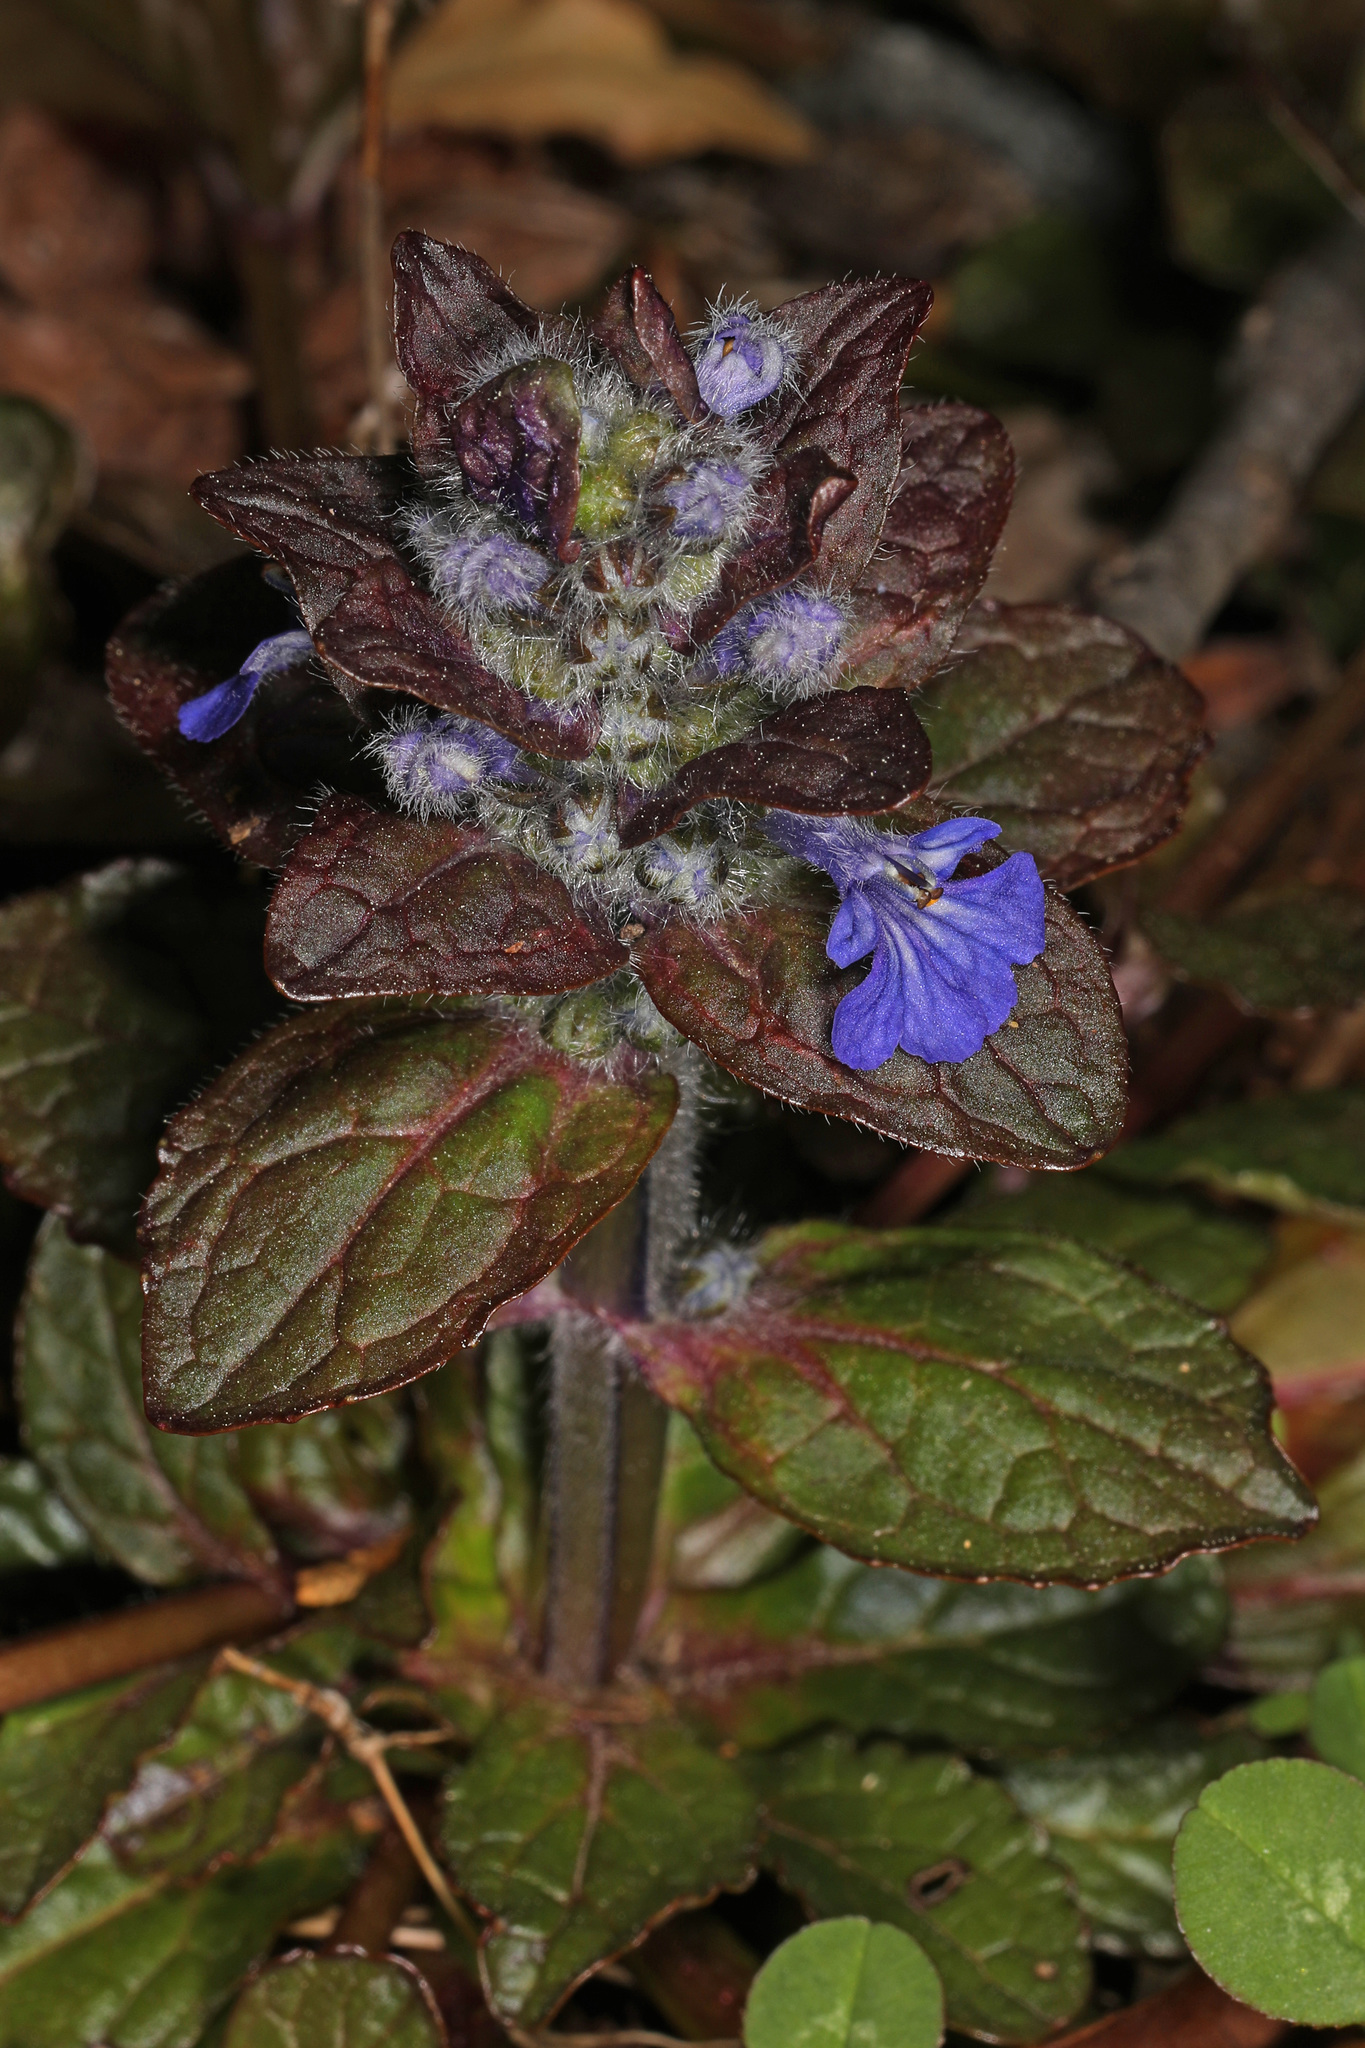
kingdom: Plantae
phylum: Tracheophyta
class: Magnoliopsida
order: Lamiales
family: Lamiaceae
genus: Ajuga
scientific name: Ajuga reptans
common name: Bugle
